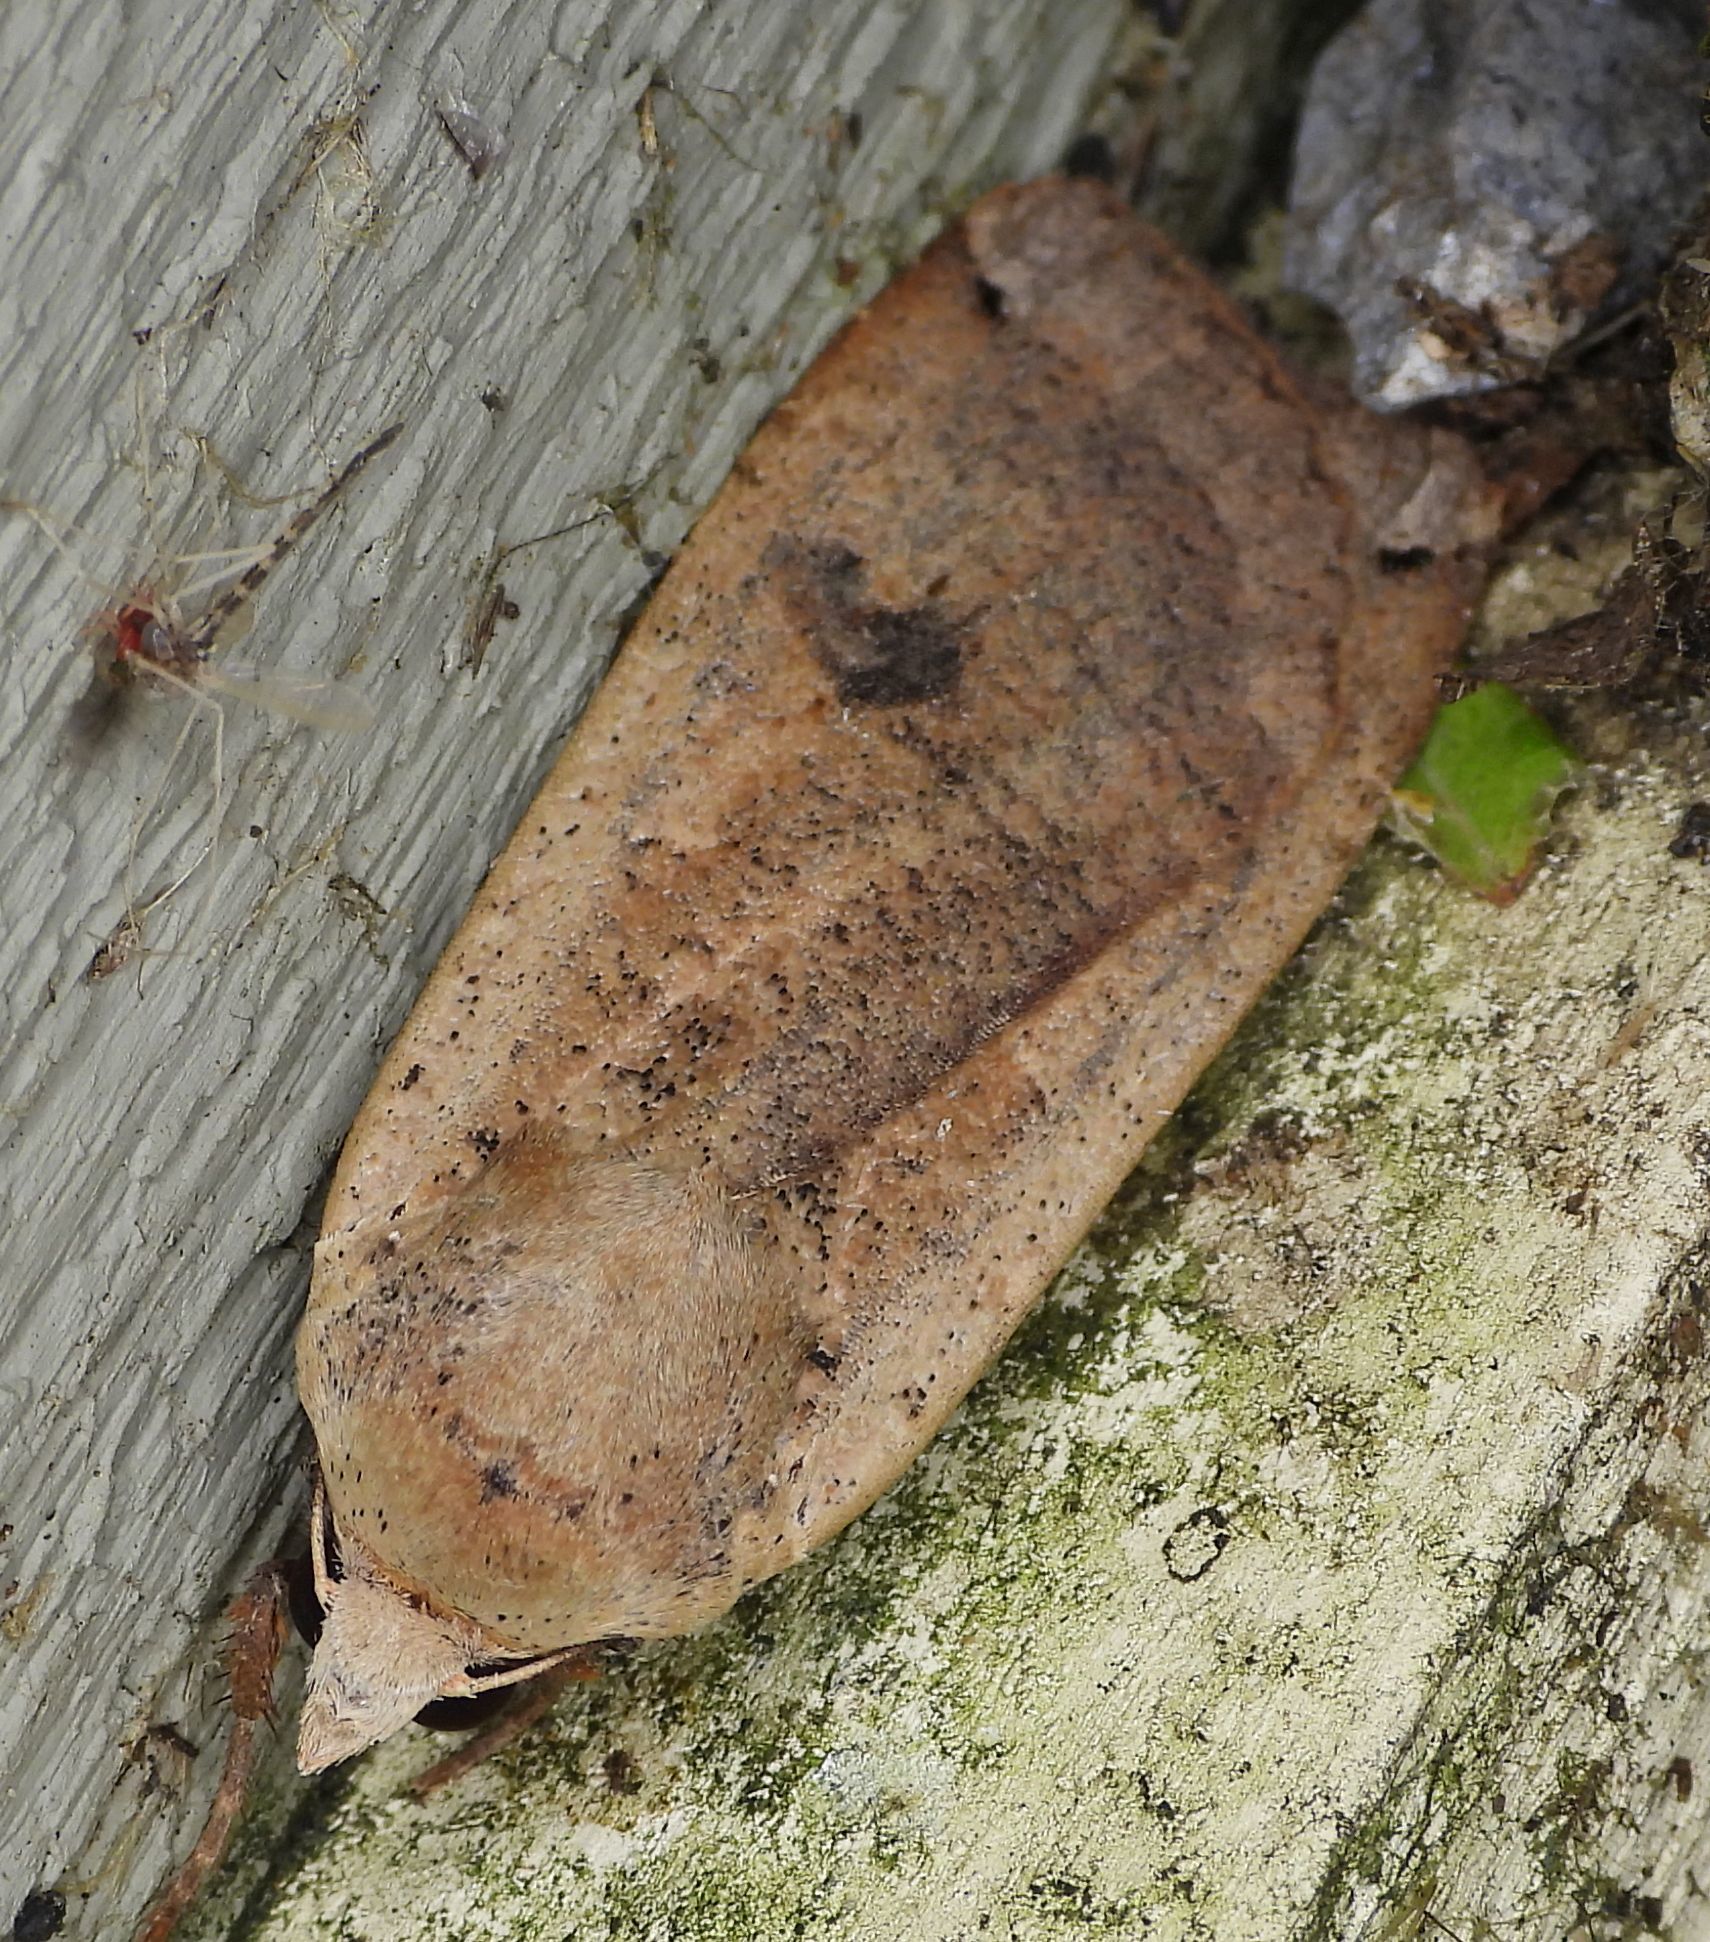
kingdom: Animalia
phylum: Arthropoda
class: Insecta
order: Lepidoptera
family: Noctuidae
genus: Noctua
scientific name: Noctua pronuba
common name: Large yellow underwing
